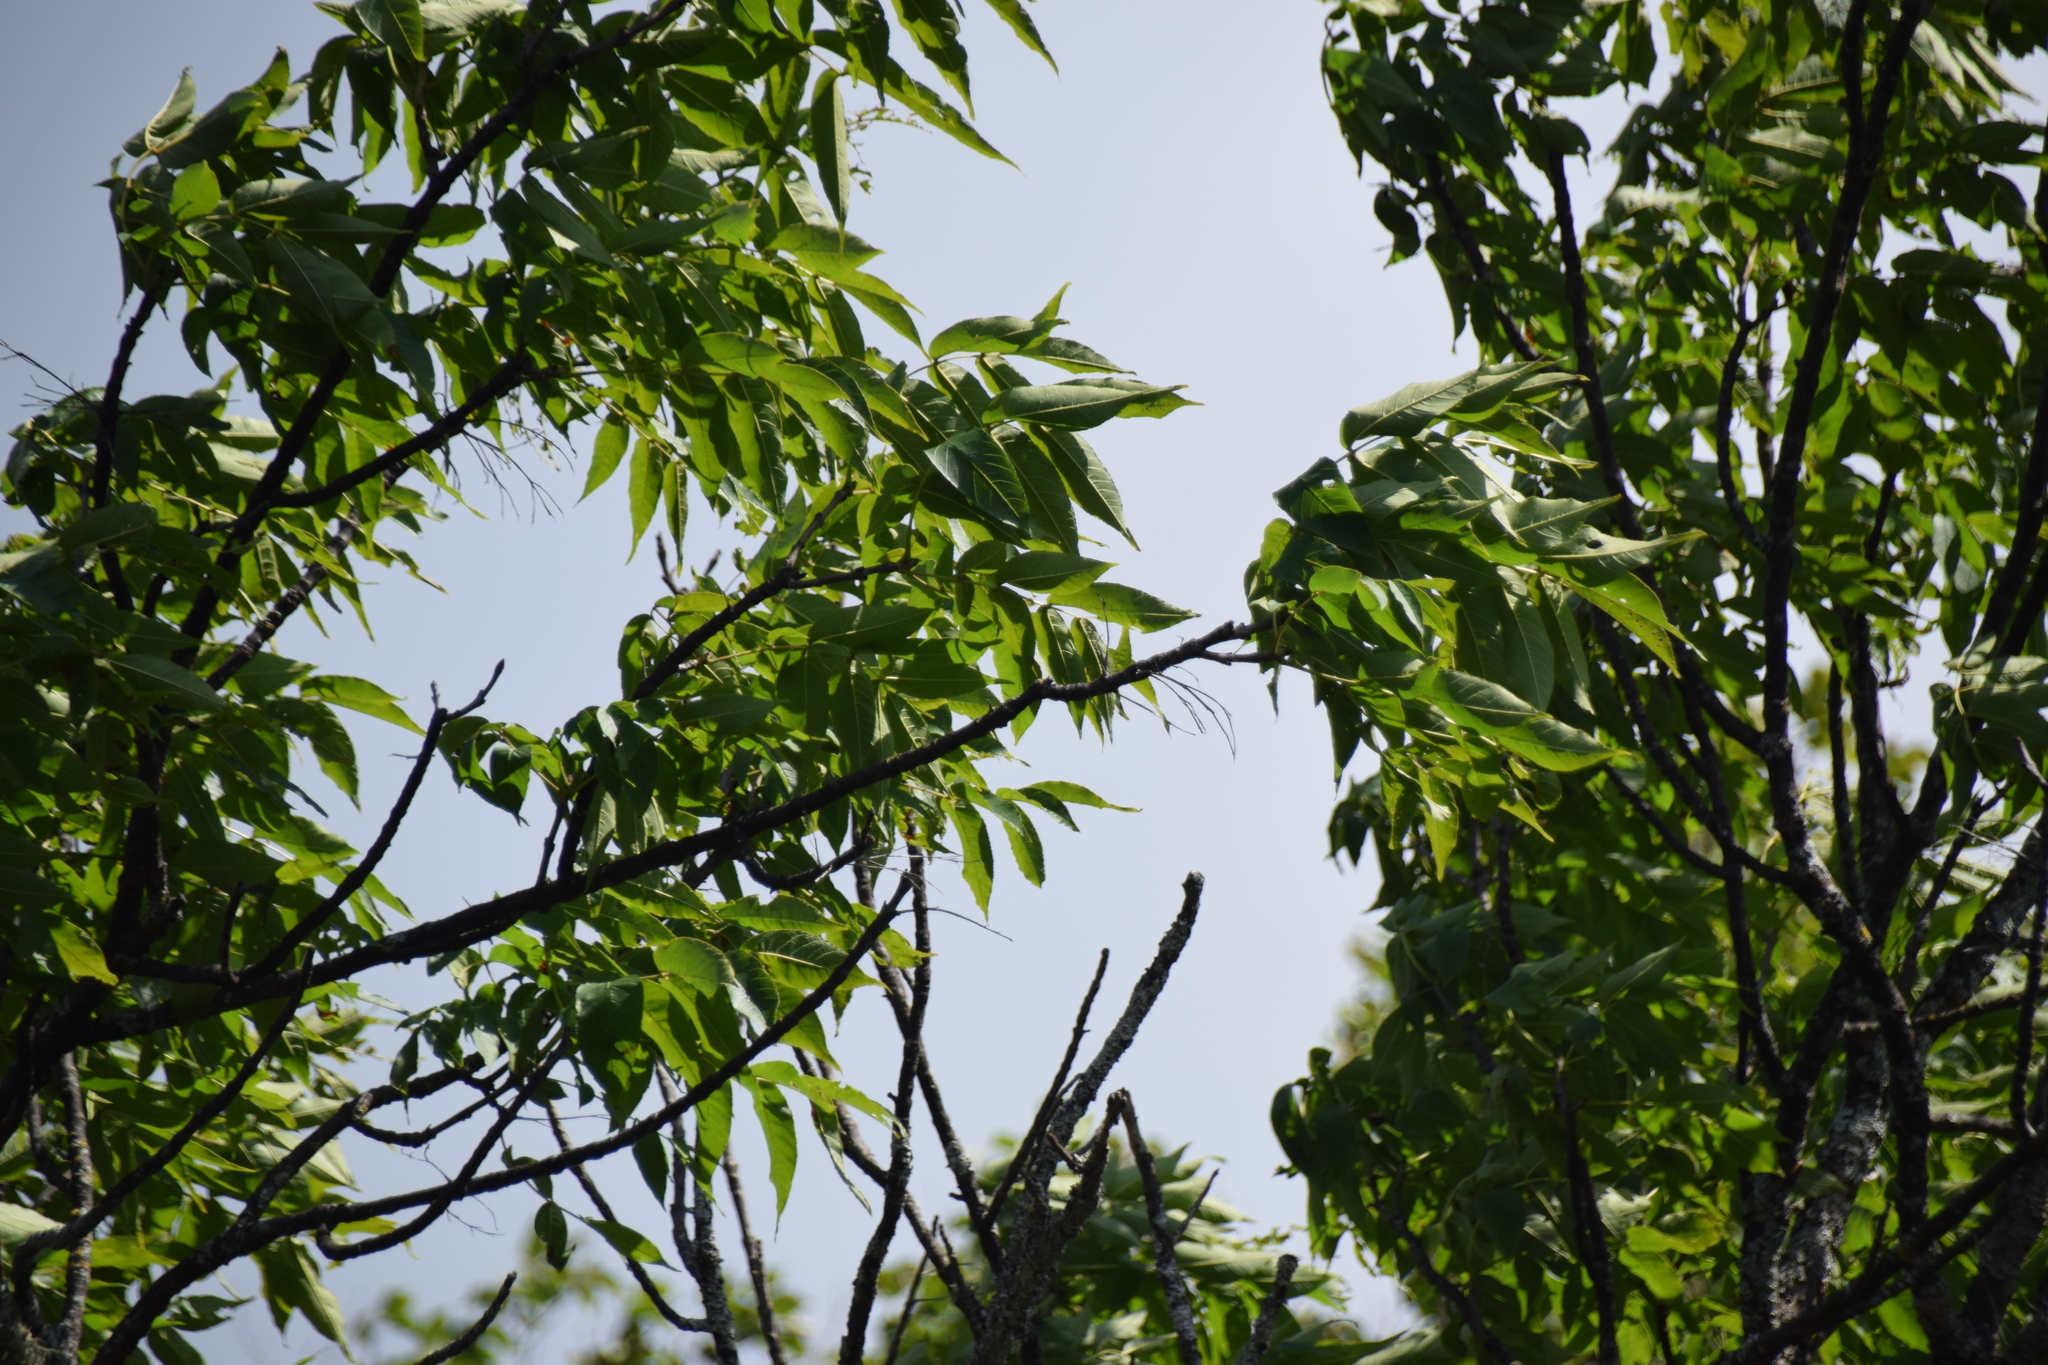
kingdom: Plantae
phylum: Tracheophyta
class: Magnoliopsida
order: Lamiales
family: Oleaceae
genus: Fraxinus
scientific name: Fraxinus nigra
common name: Black ash
